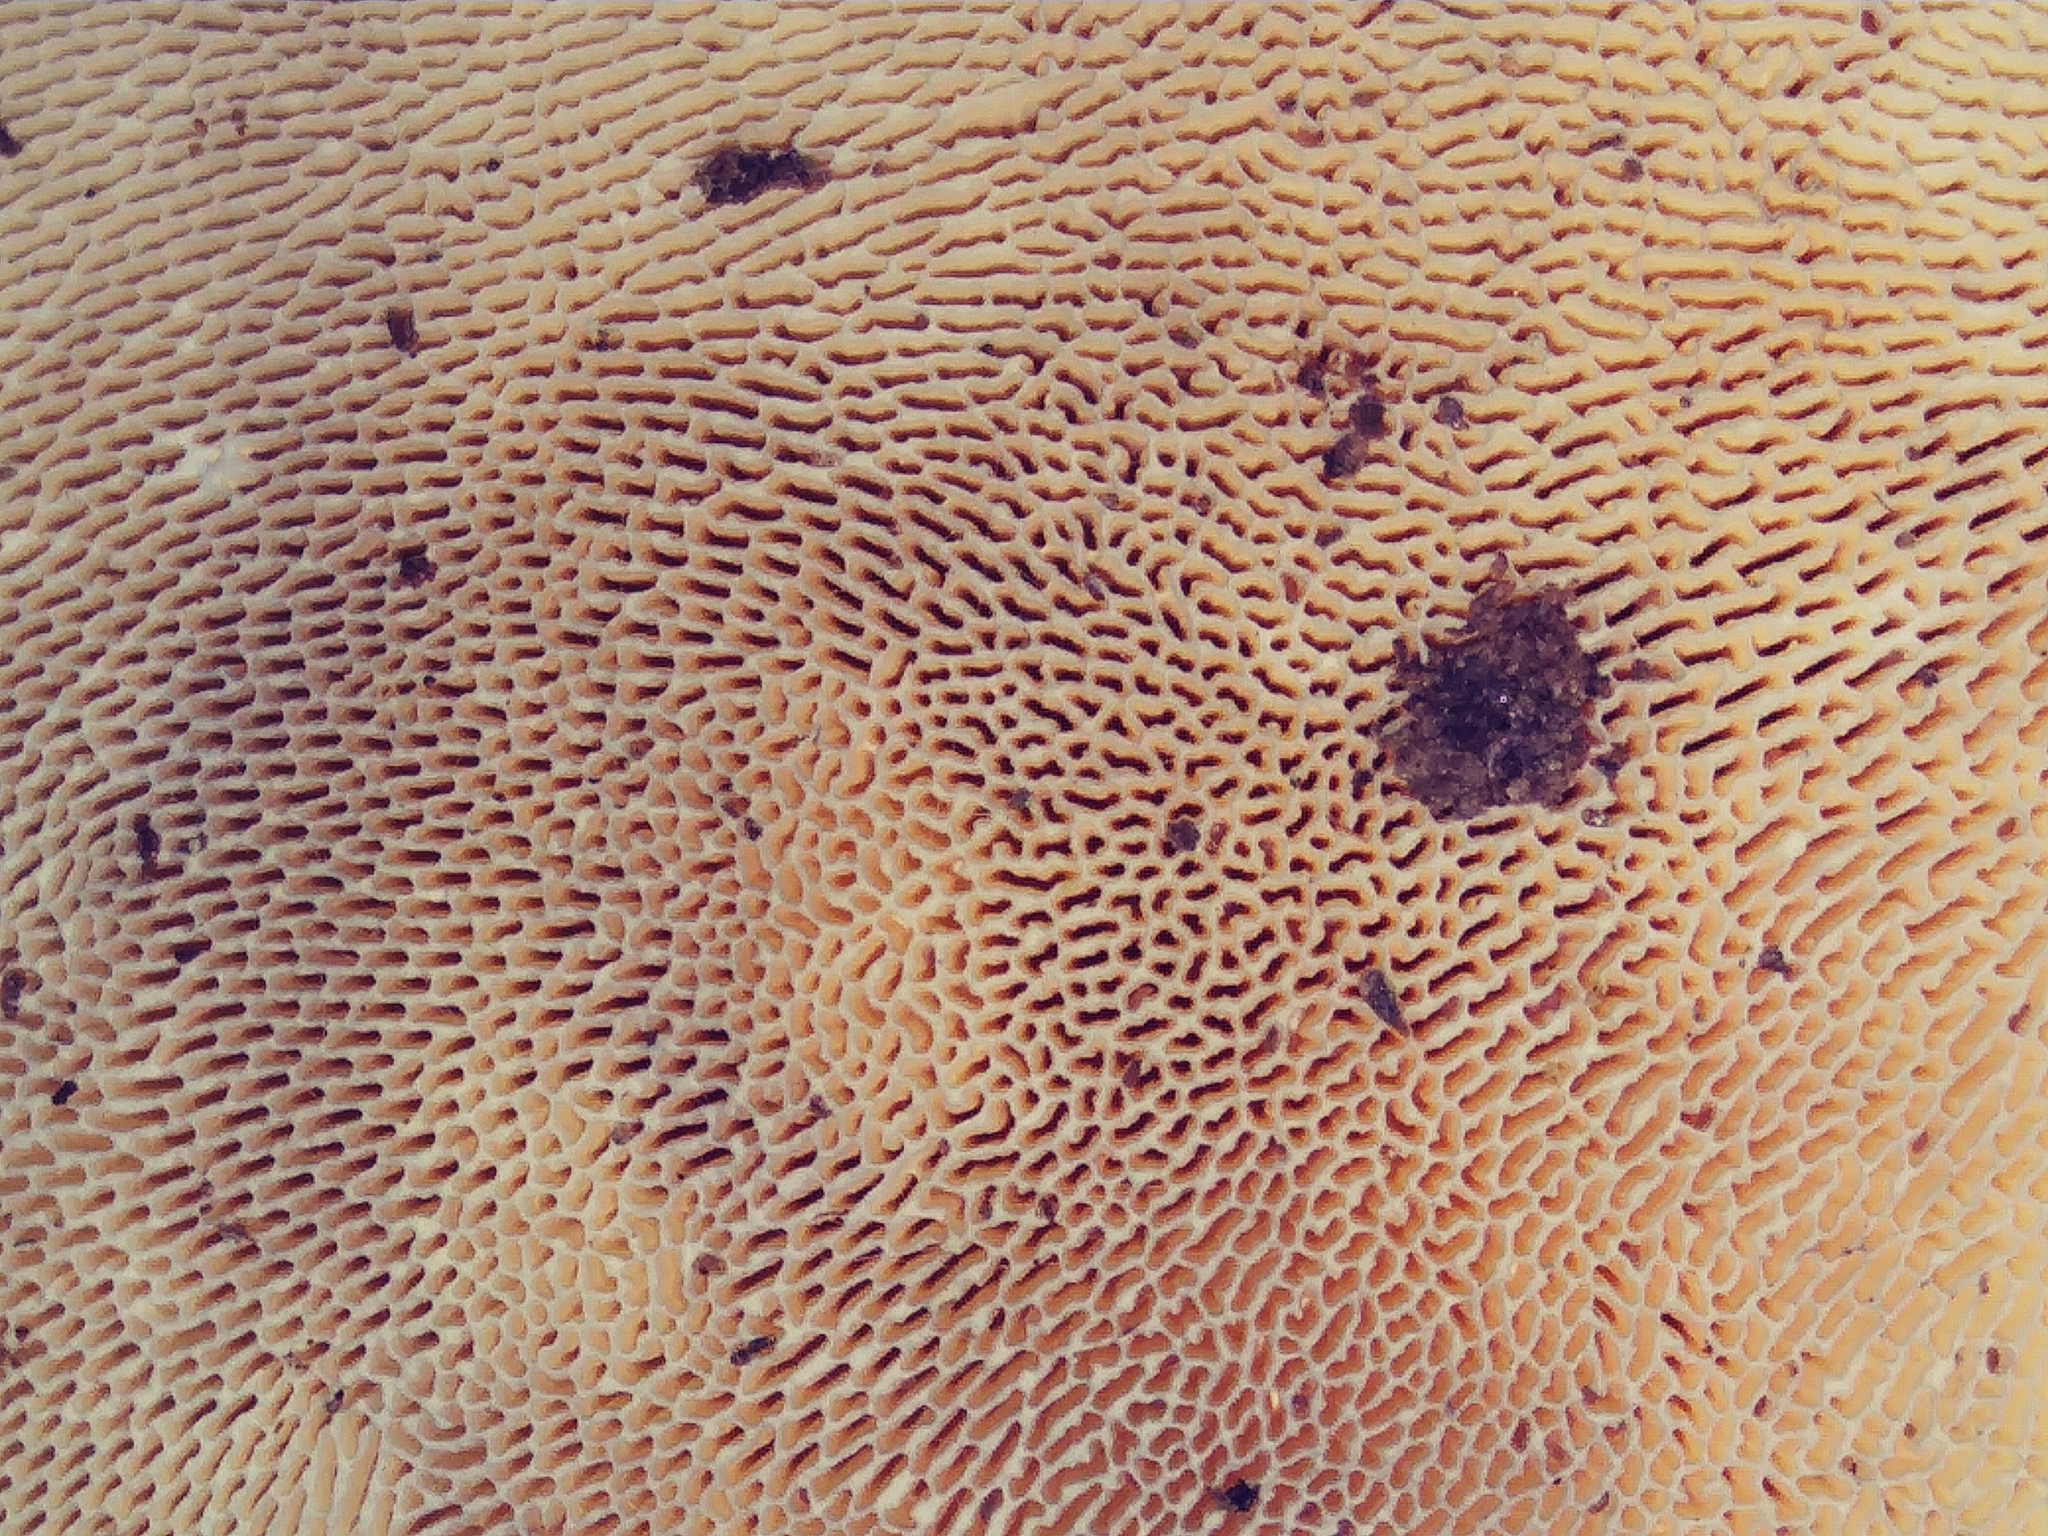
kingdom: Fungi
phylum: Basidiomycota
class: Agaricomycetes
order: Polyporales
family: Polyporaceae
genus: Trametes
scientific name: Trametes gibbosa
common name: Lumpy bracket
